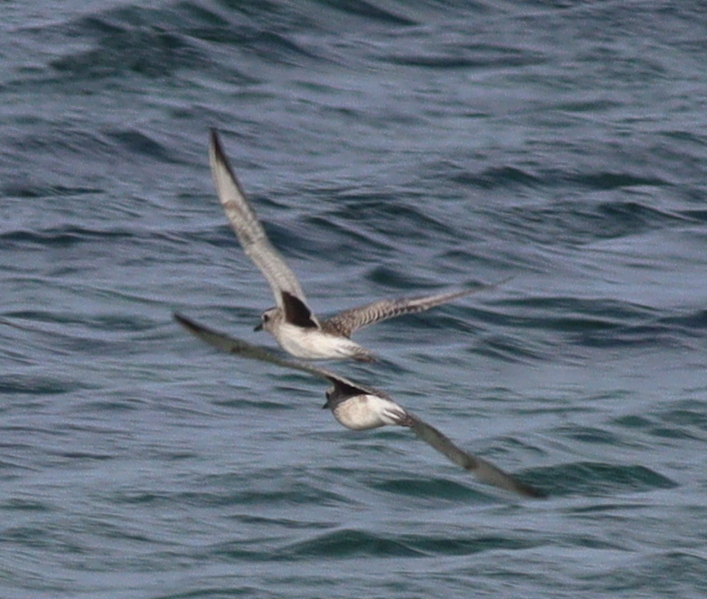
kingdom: Animalia
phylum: Chordata
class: Aves
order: Charadriiformes
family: Charadriidae
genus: Pluvialis
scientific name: Pluvialis squatarola
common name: Grey plover
